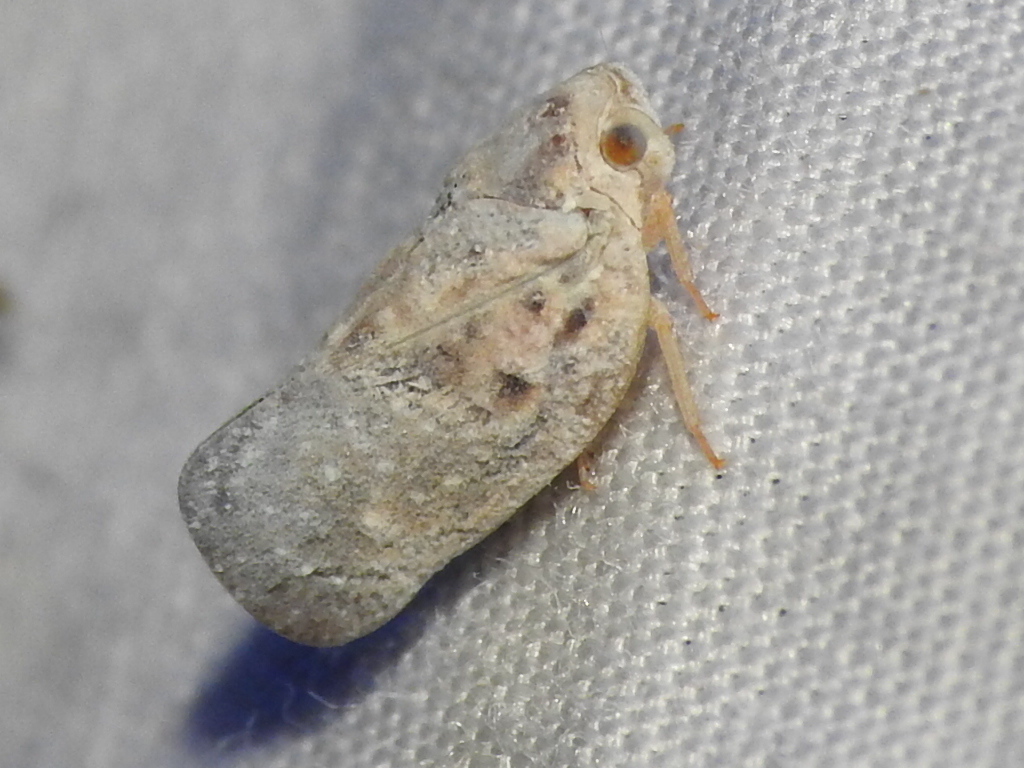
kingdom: Animalia
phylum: Arthropoda
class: Insecta
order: Hemiptera
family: Flatidae
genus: Metcalfa
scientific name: Metcalfa pruinosa
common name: Citrus flatid planthopper
